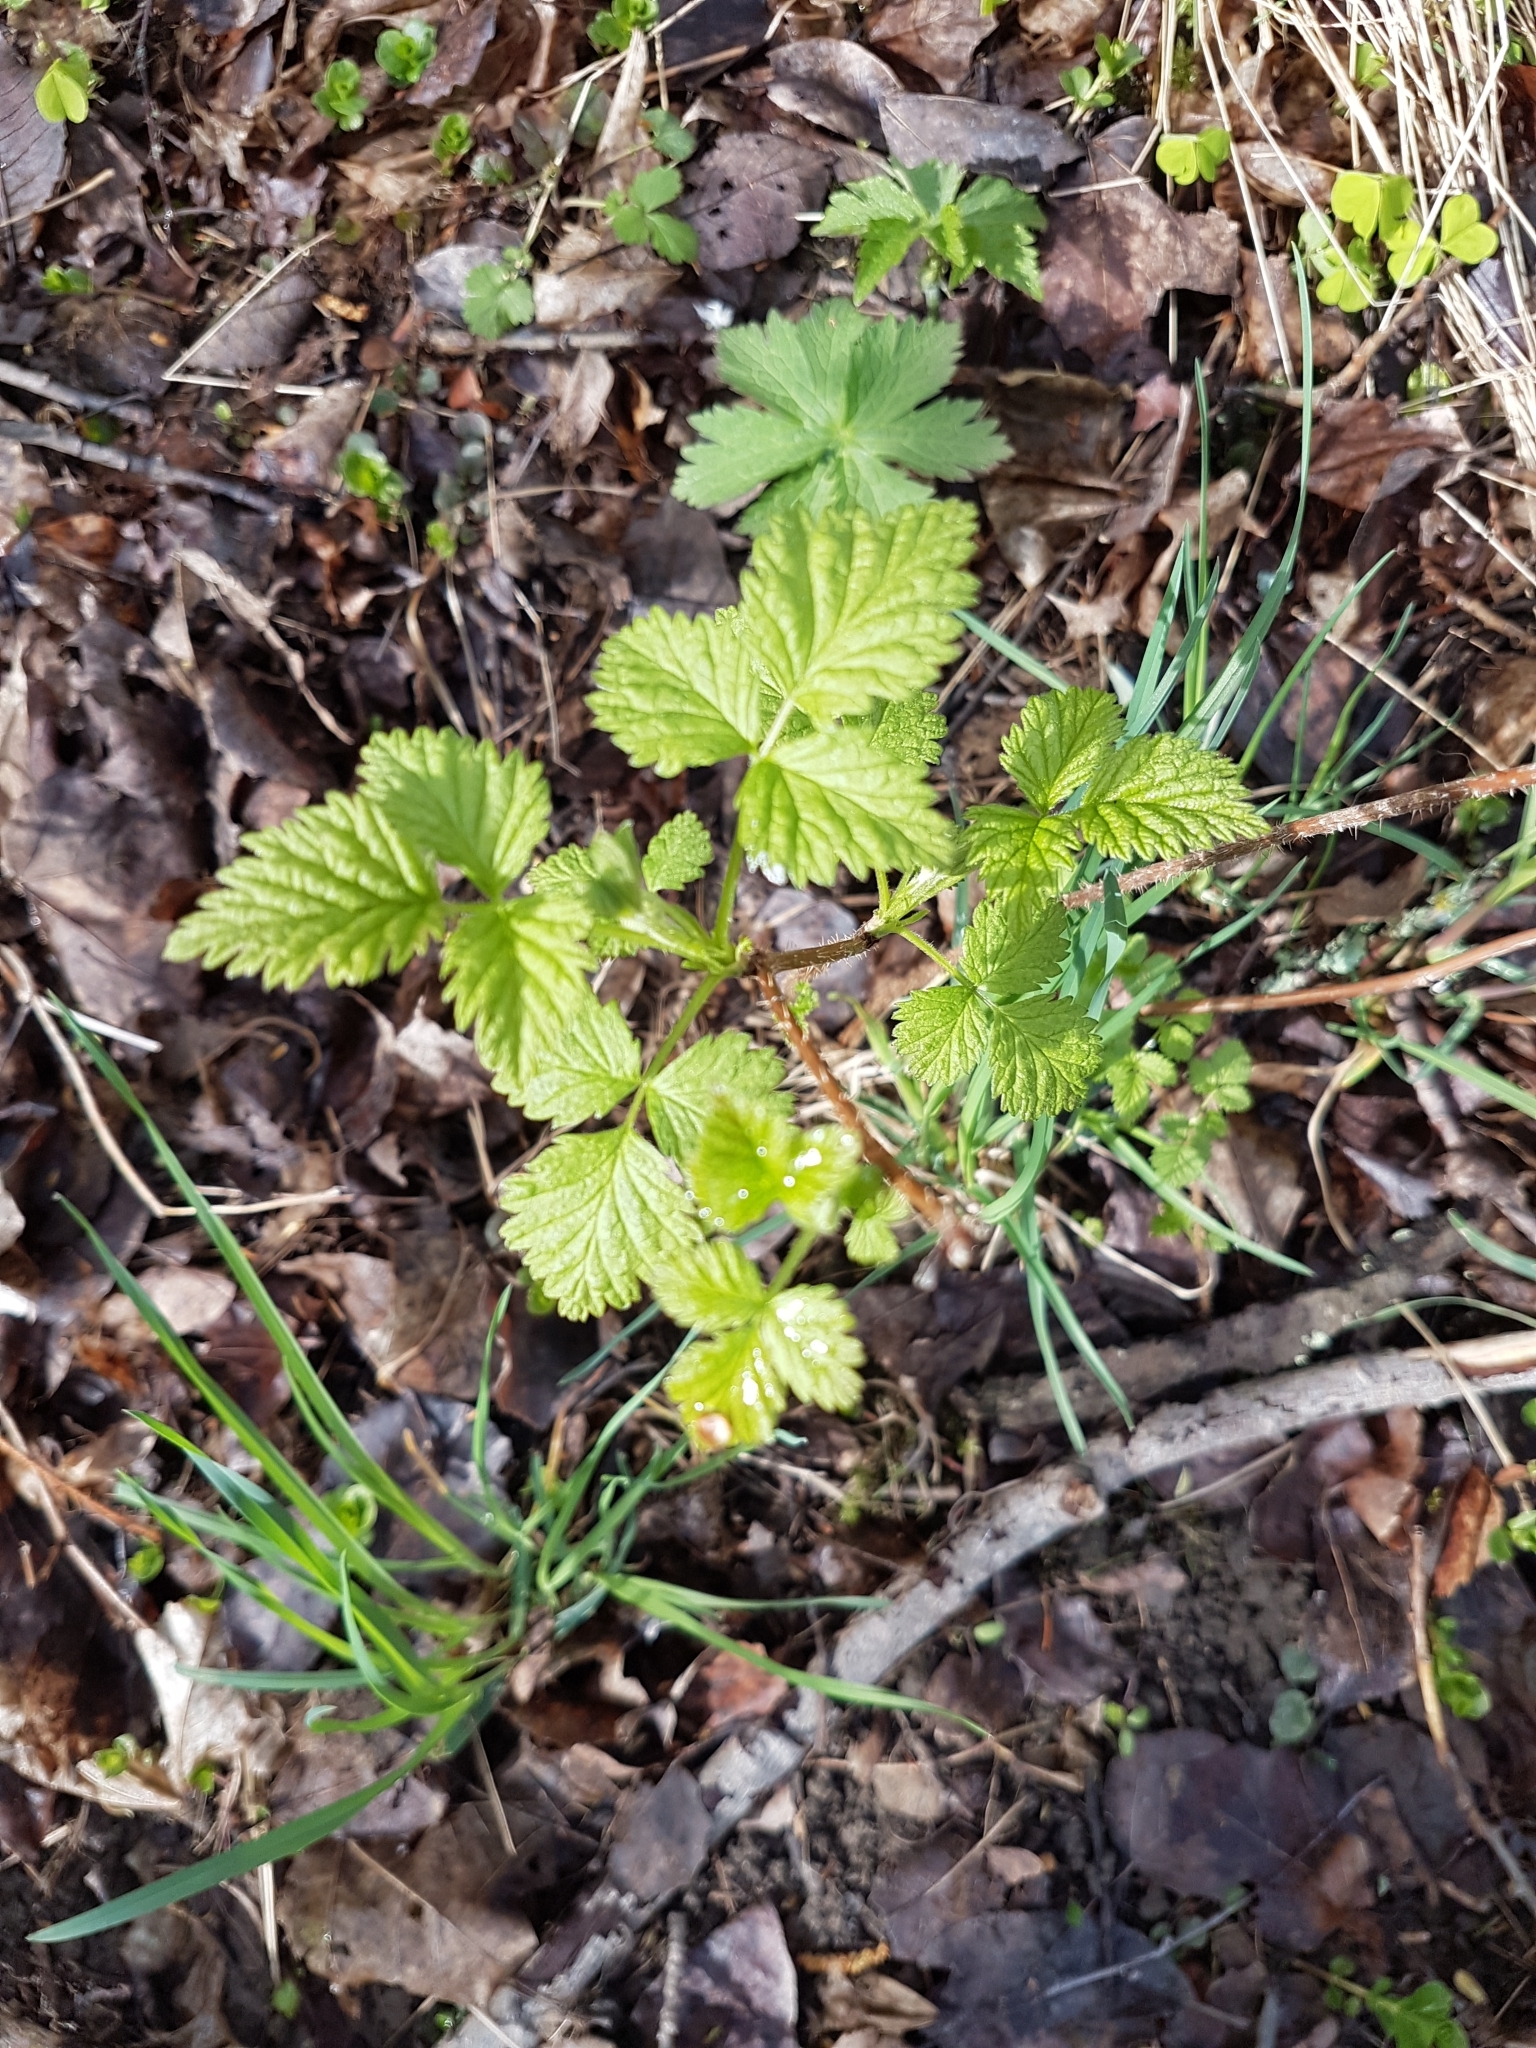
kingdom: Plantae
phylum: Tracheophyta
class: Magnoliopsida
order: Rosales
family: Rosaceae
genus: Rubus
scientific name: Rubus idaeus
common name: Raspberry
